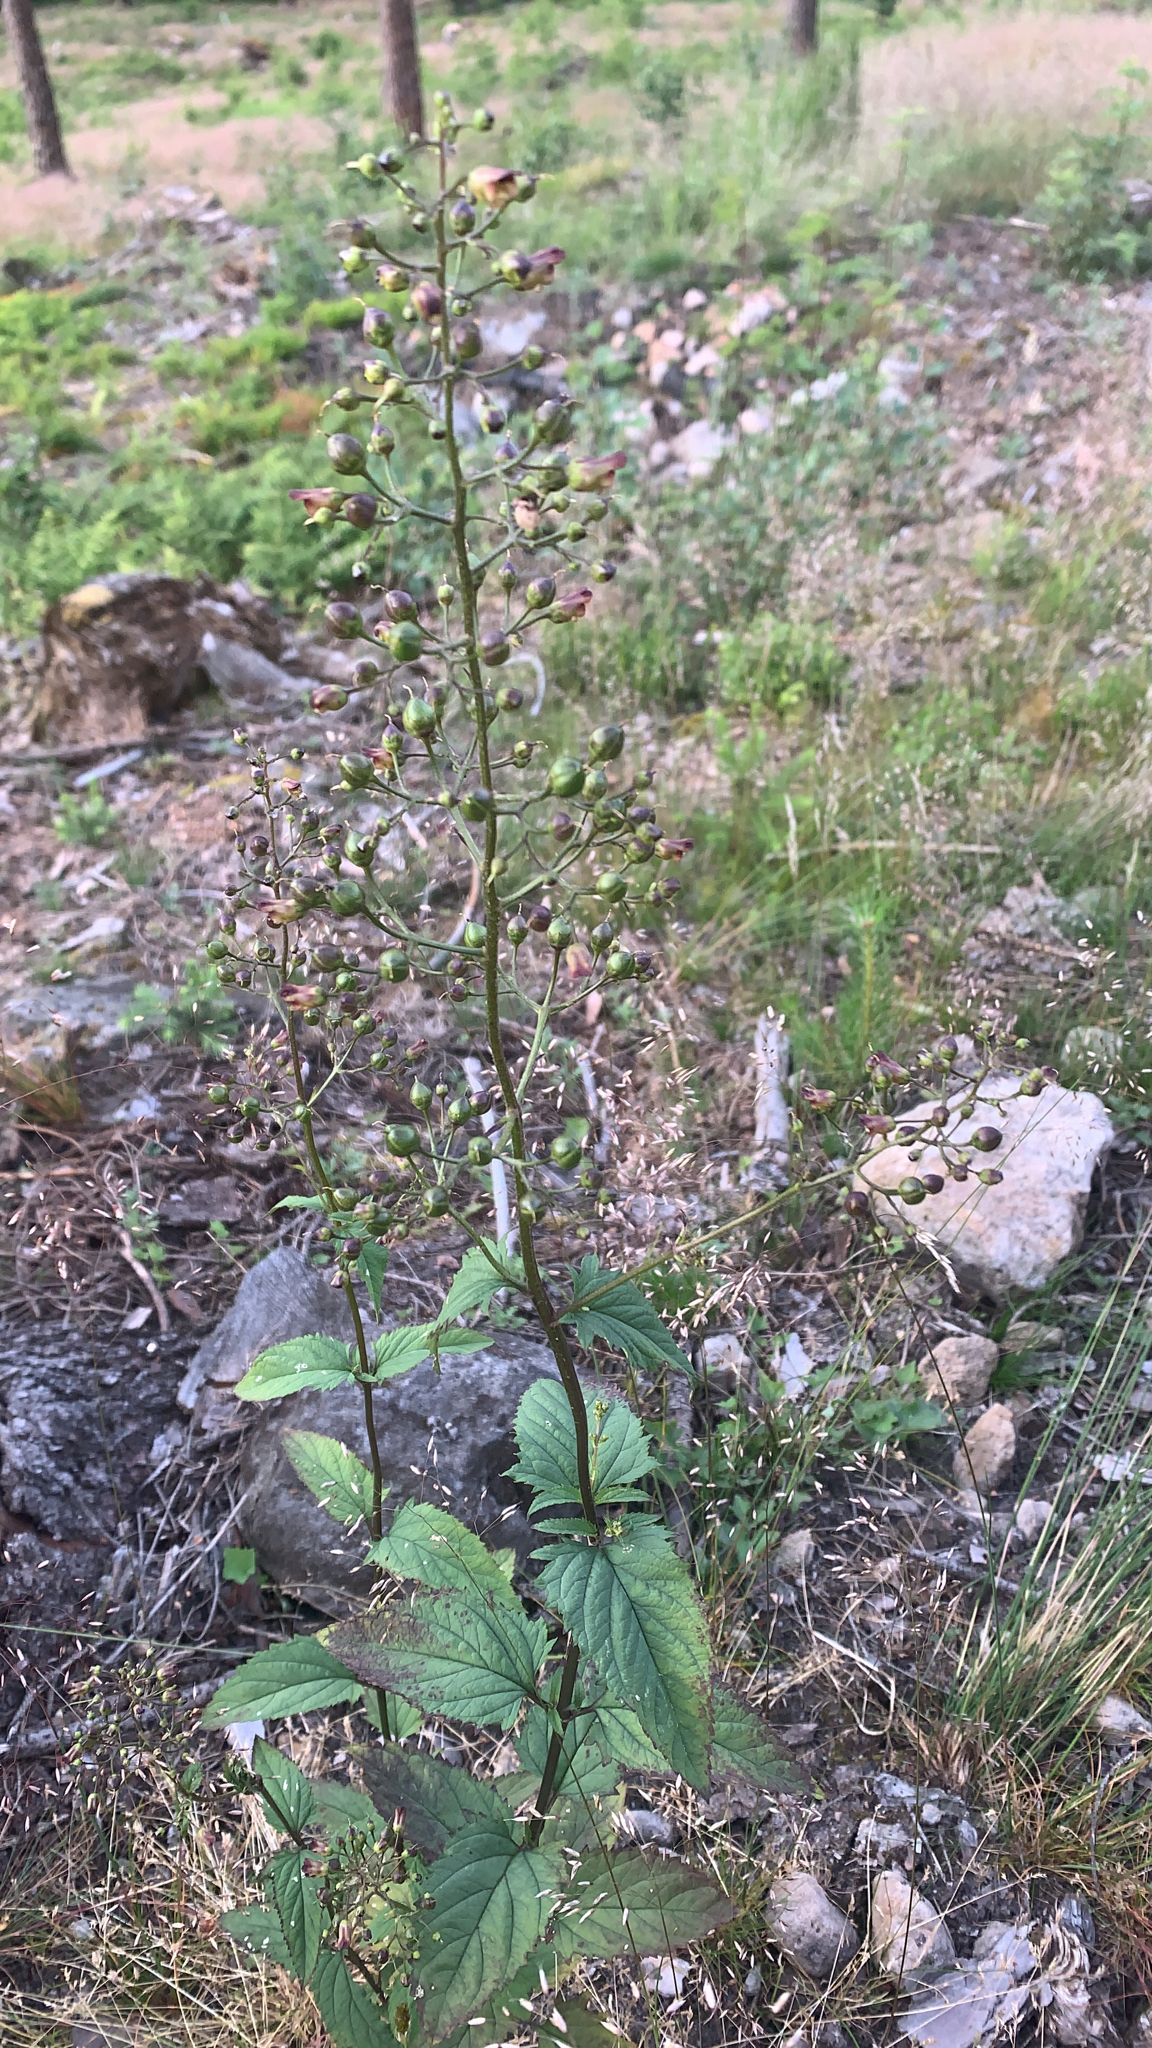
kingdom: Plantae
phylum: Tracheophyta
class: Magnoliopsida
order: Lamiales
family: Scrophulariaceae
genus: Scrophularia
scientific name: Scrophularia nodosa
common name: Common figwort
